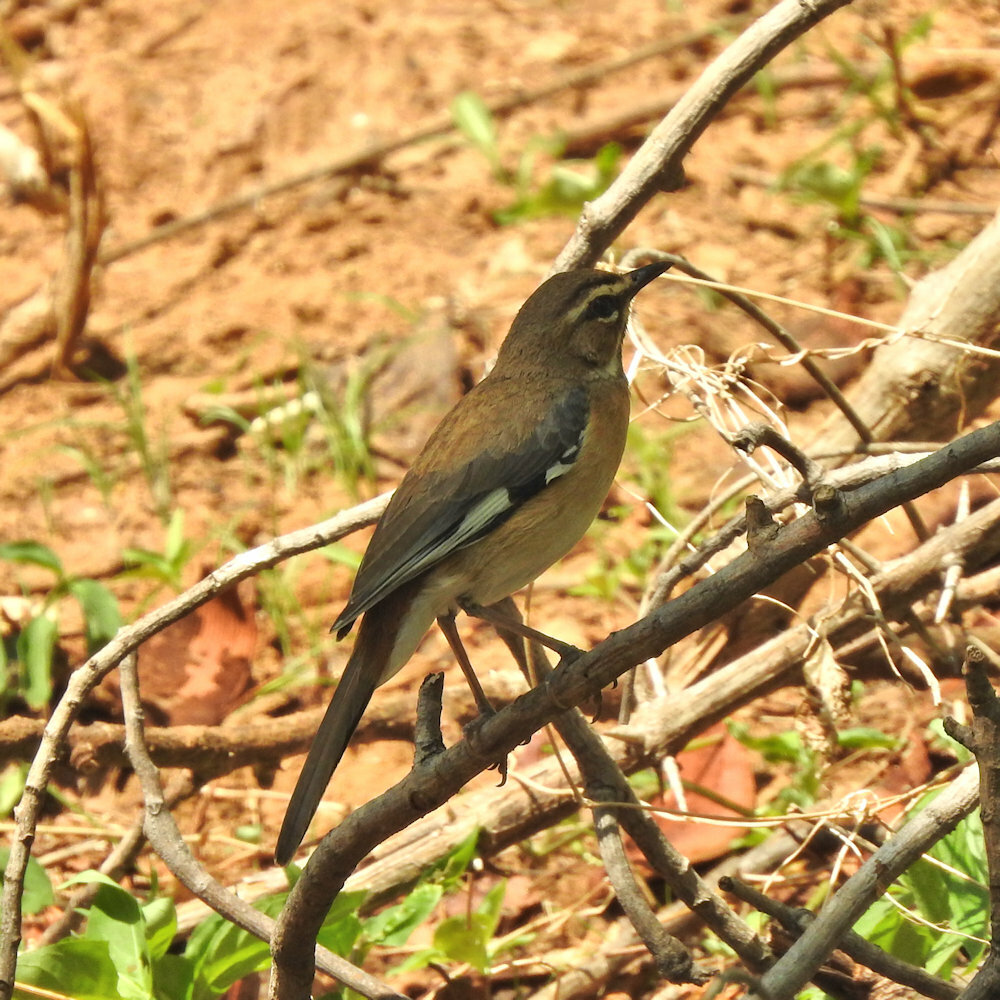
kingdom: Animalia
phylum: Chordata
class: Aves
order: Passeriformes
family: Muscicapidae
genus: Erythropygia
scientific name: Erythropygia quadrivirgata
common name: Bearded scrub robin
